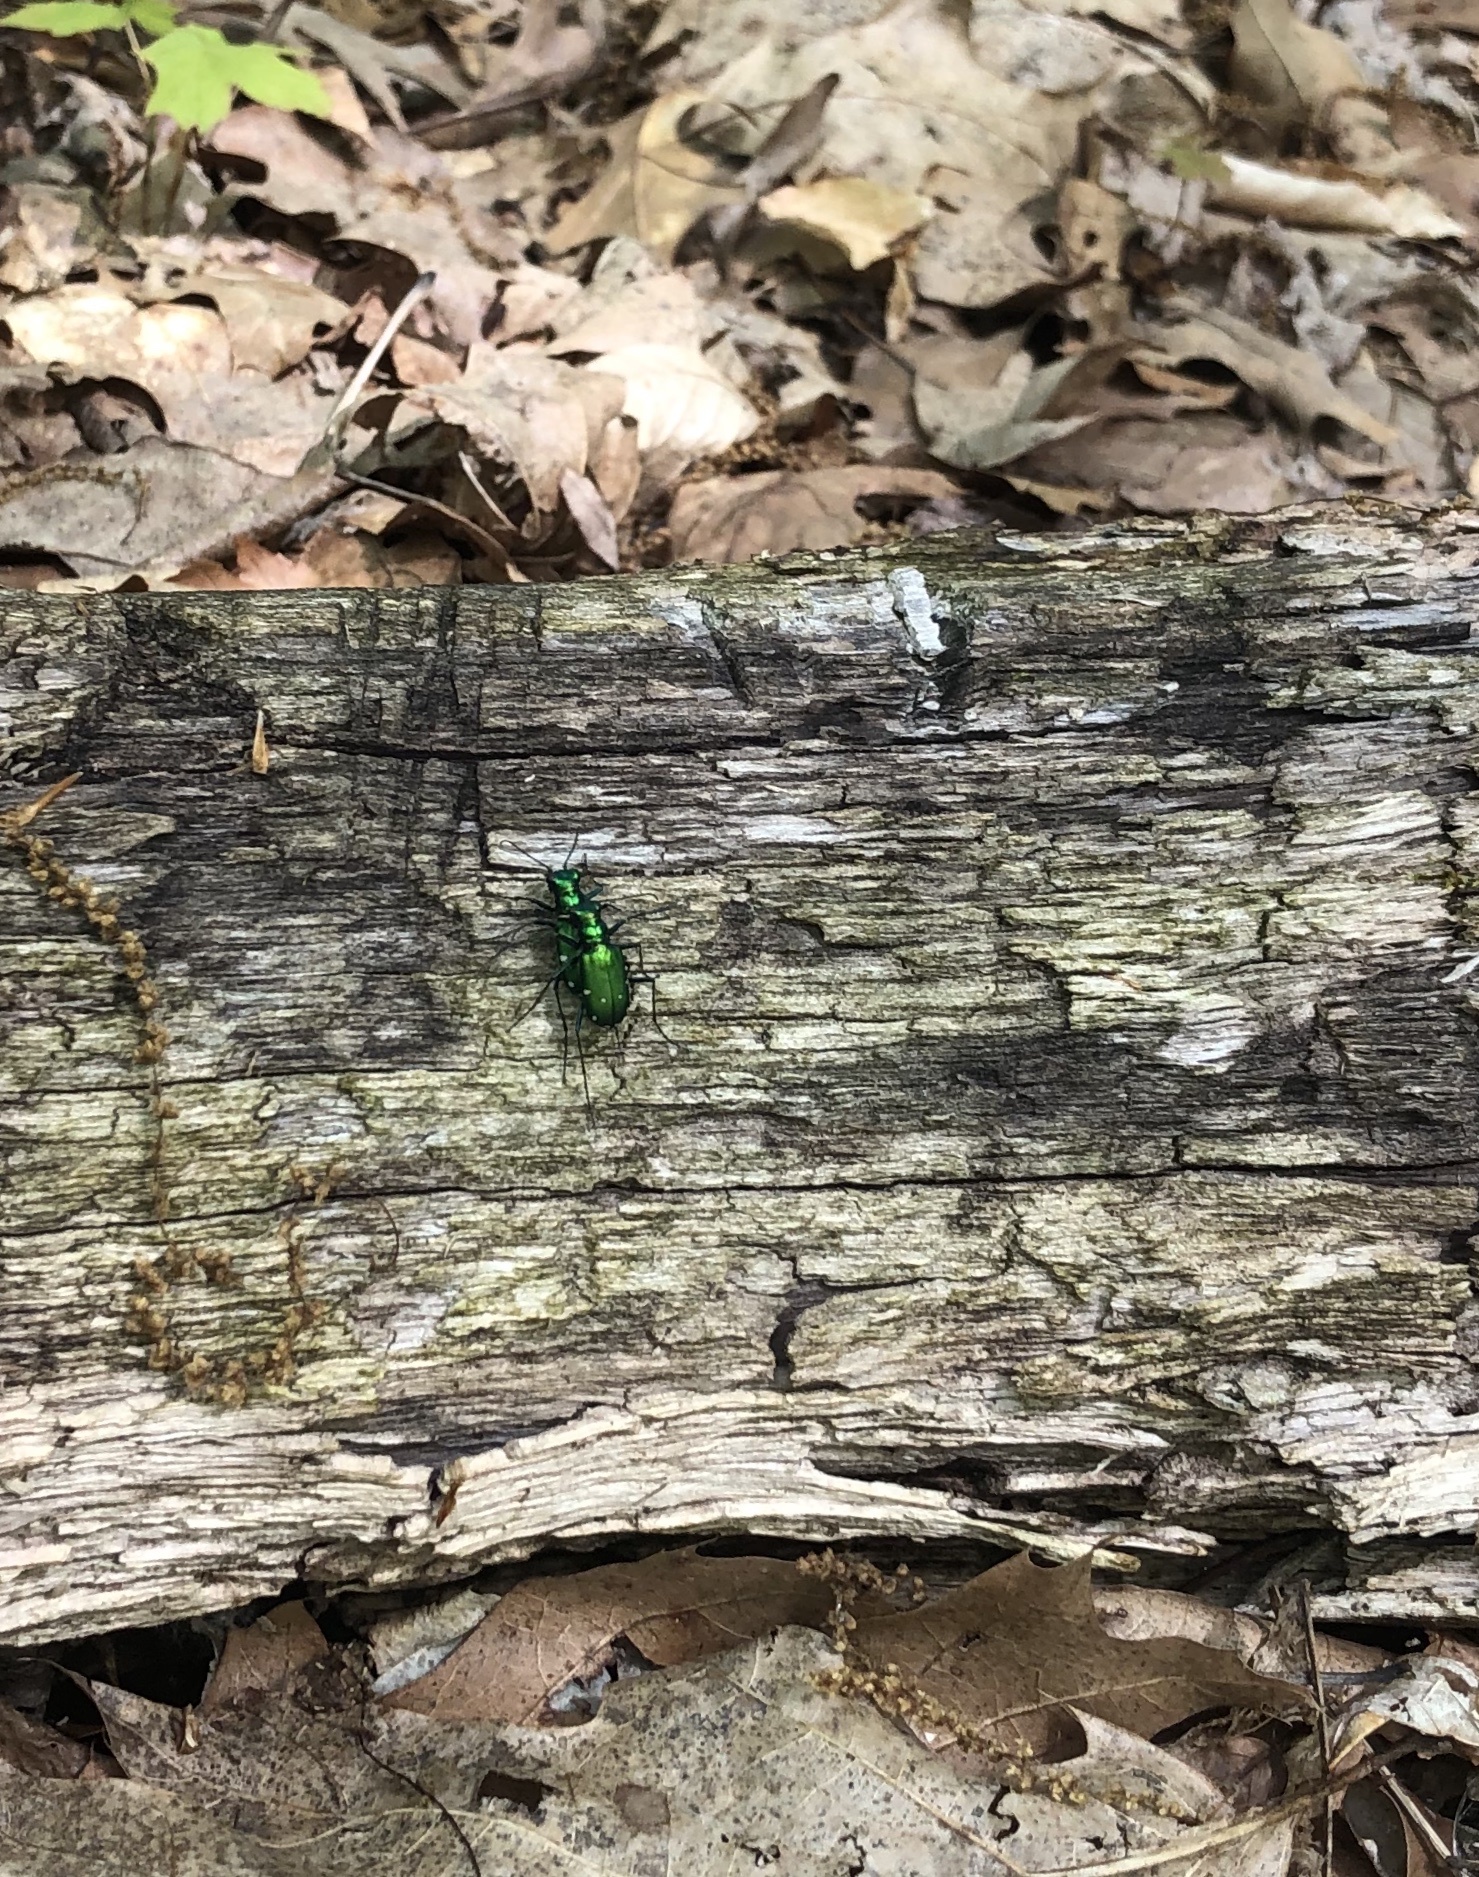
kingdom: Animalia
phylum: Arthropoda
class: Insecta
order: Coleoptera
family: Carabidae
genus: Cicindela
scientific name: Cicindela sexguttata
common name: Six-spotted tiger beetle
